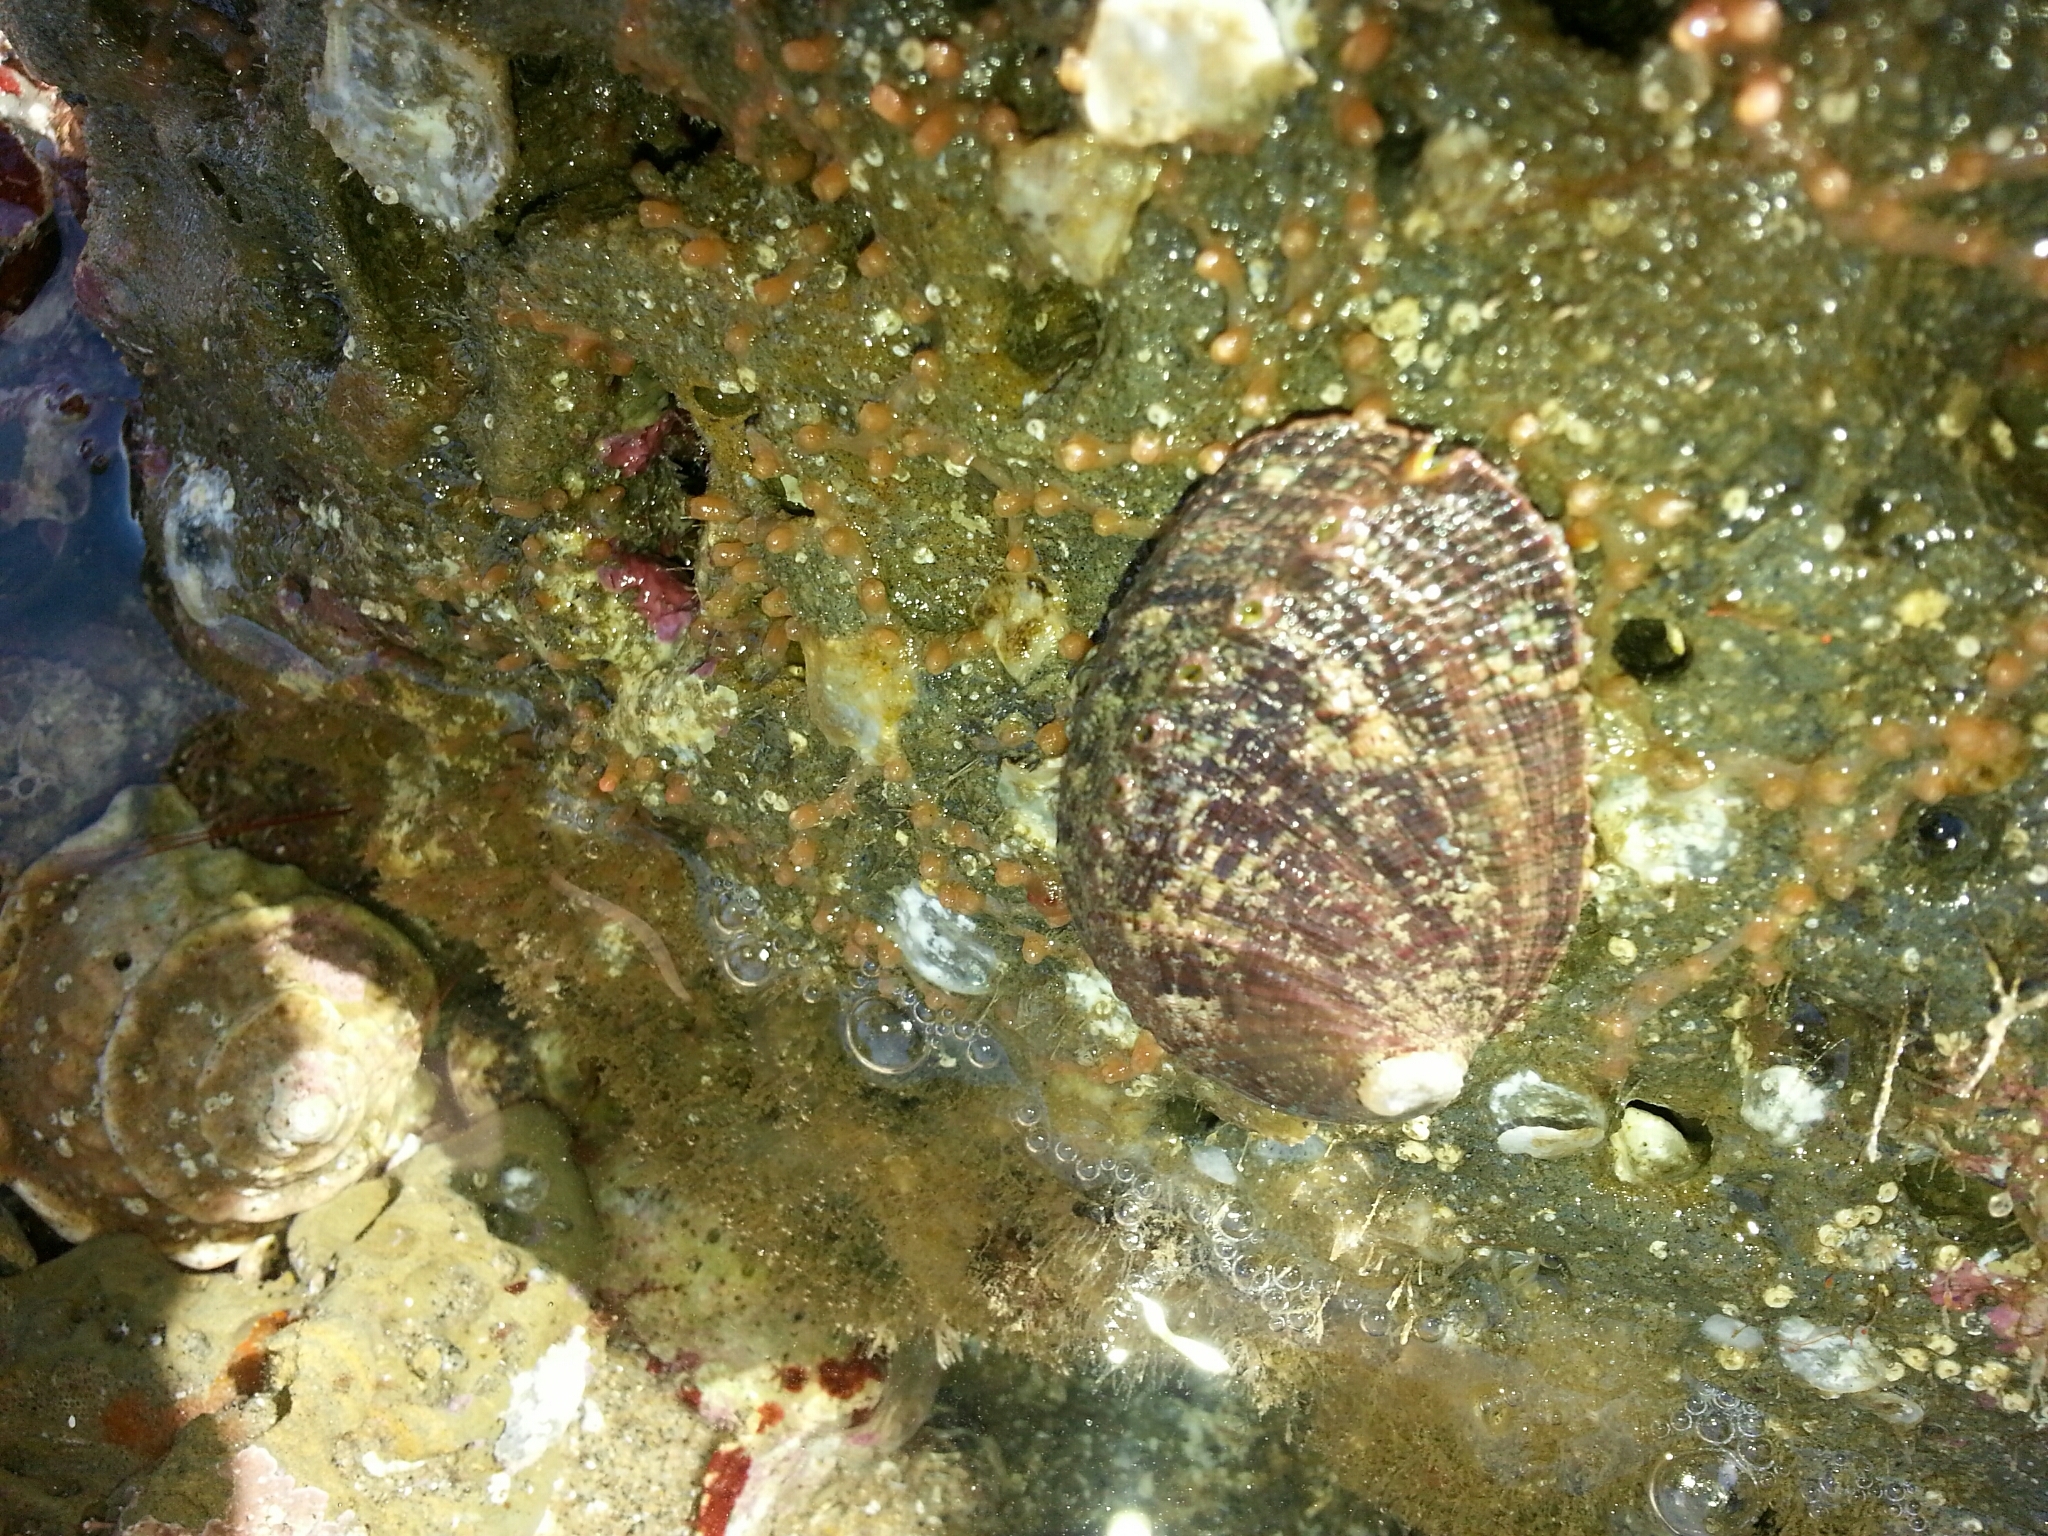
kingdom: Animalia
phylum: Mollusca
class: Gastropoda
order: Lepetellida
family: Haliotidae
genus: Haliotis
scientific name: Haliotis fulgens
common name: Green abalone
